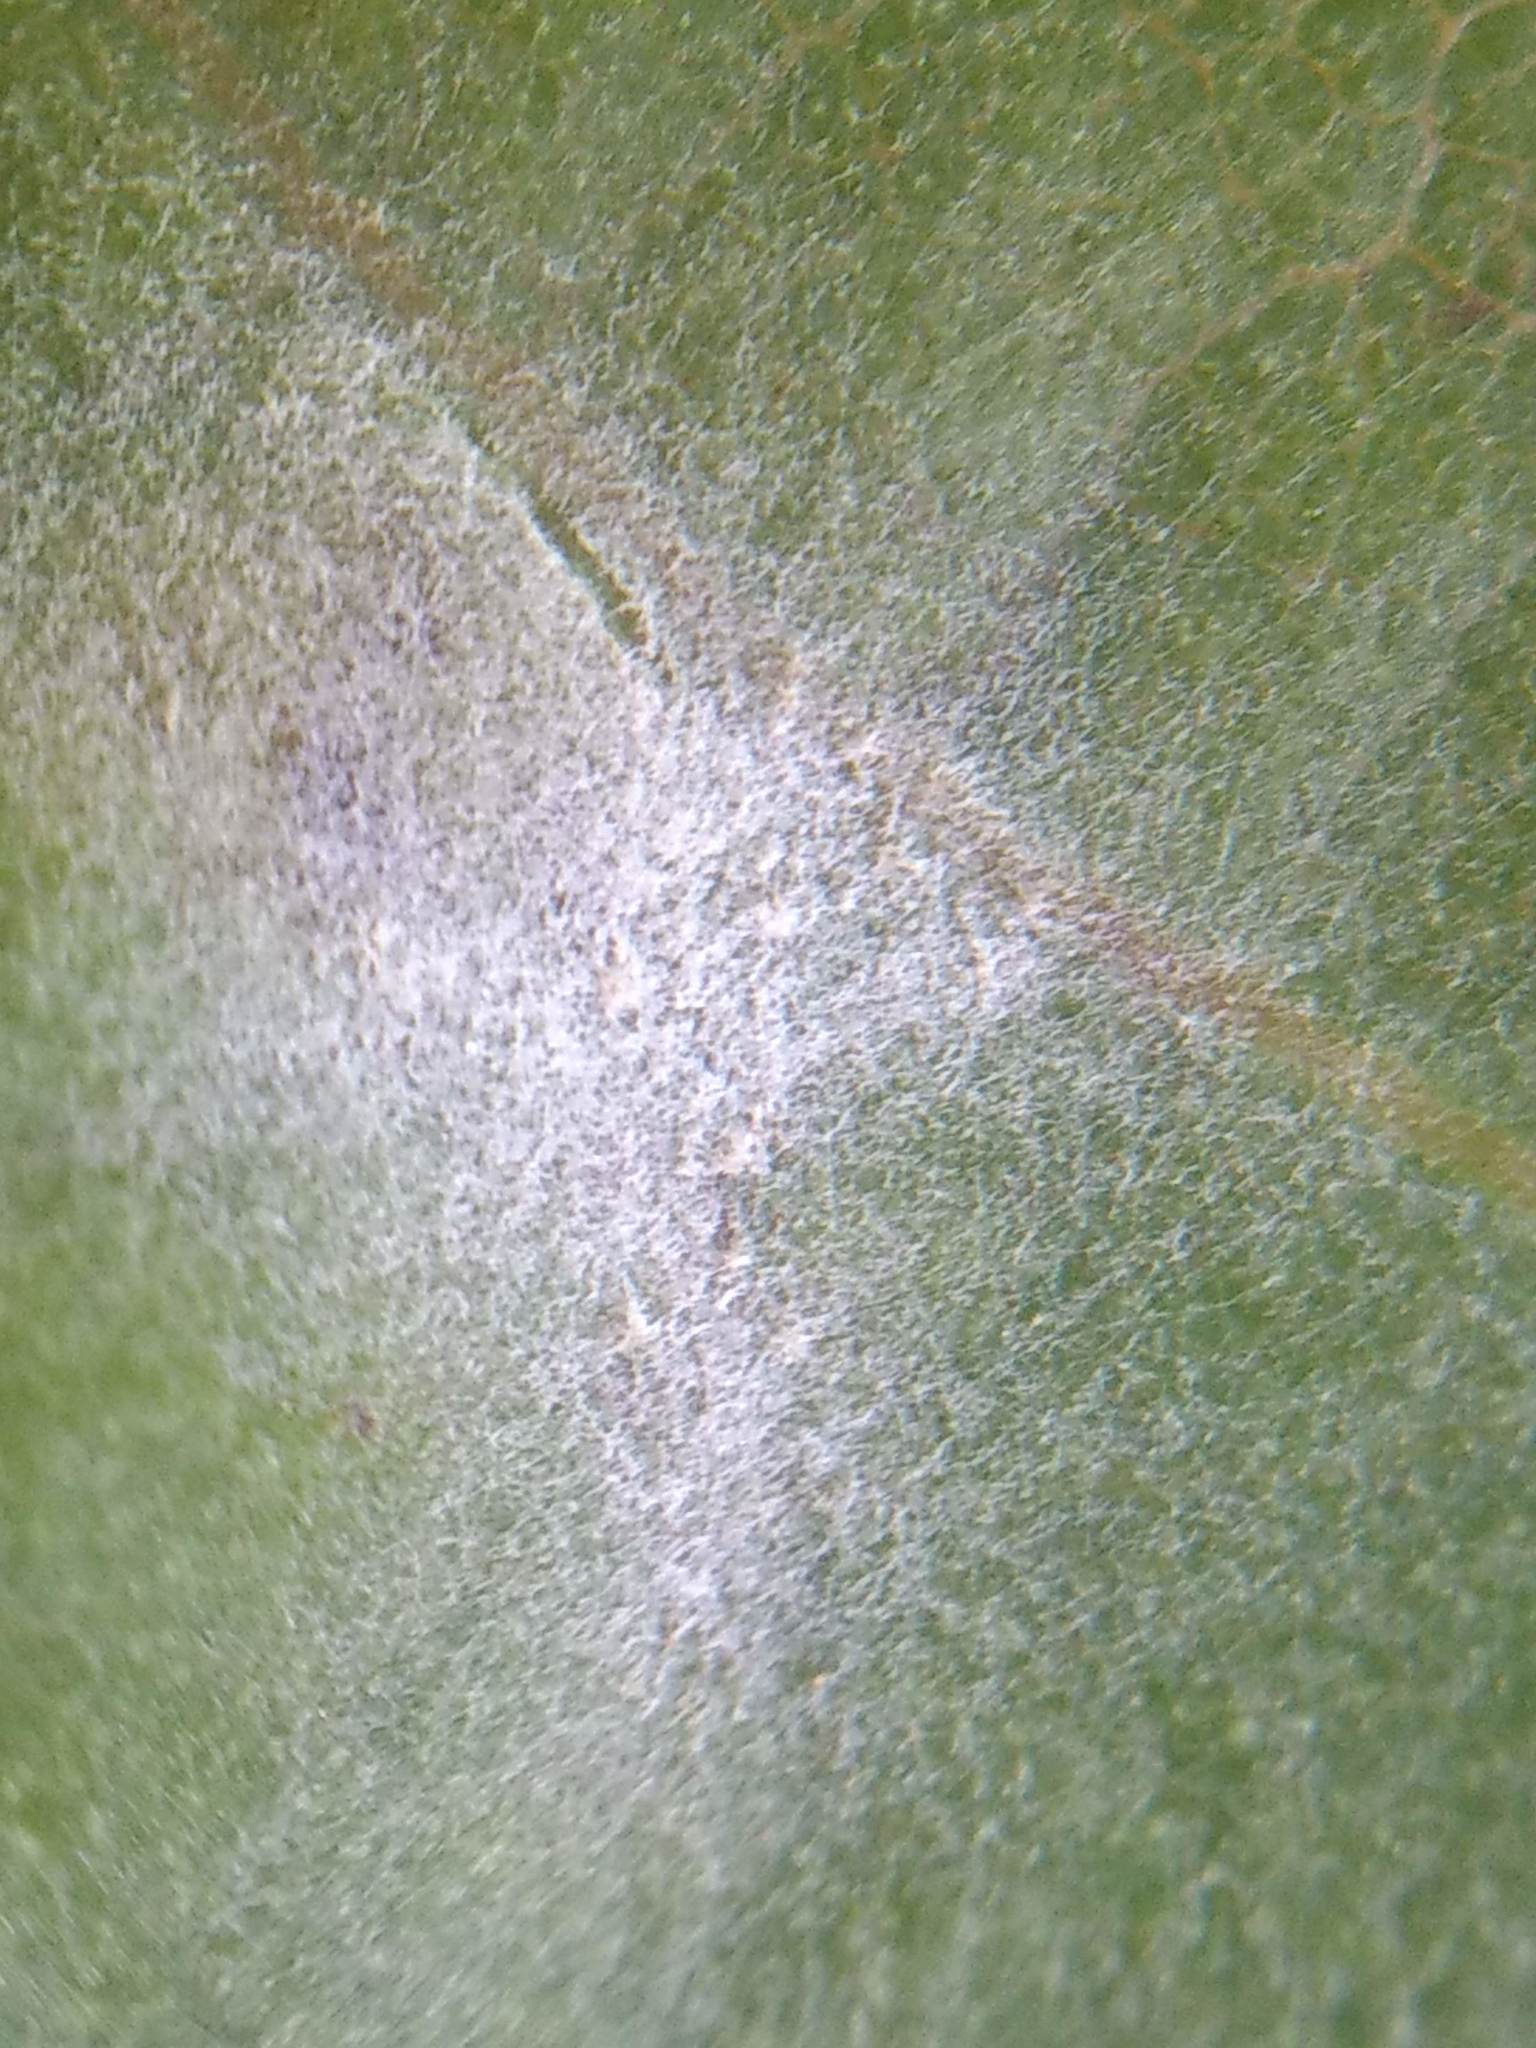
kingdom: Fungi
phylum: Ascomycota
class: Leotiomycetes
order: Helotiales
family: Erysiphaceae
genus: Erysiphe
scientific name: Erysiphe platani
